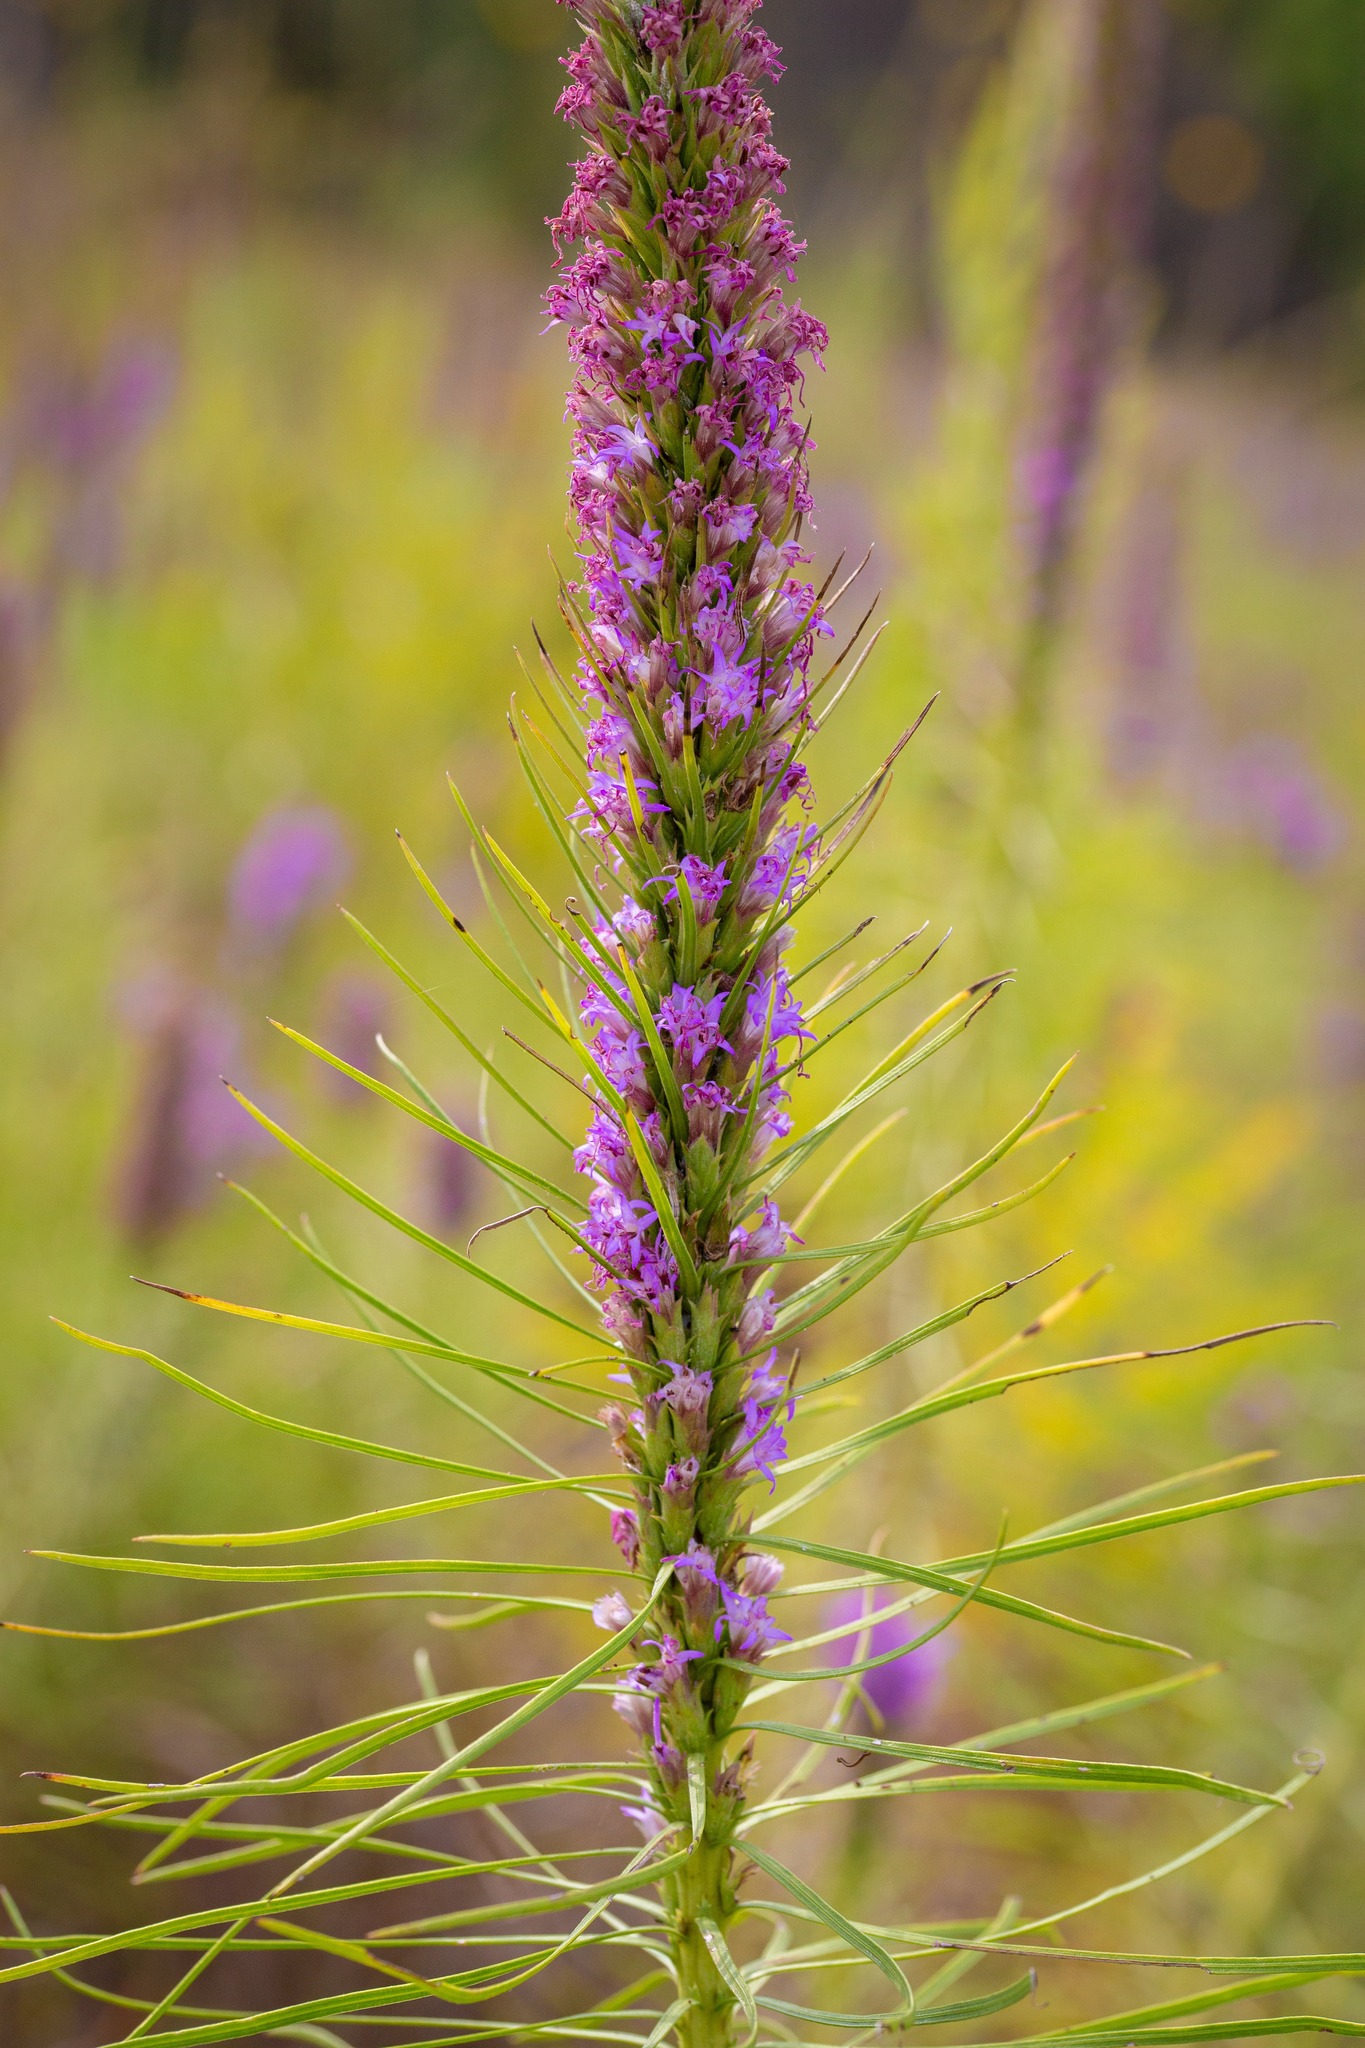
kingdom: Plantae
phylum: Tracheophyta
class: Magnoliopsida
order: Asterales
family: Asteraceae
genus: Liatris
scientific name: Liatris punctata
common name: Dotted gayfeather
